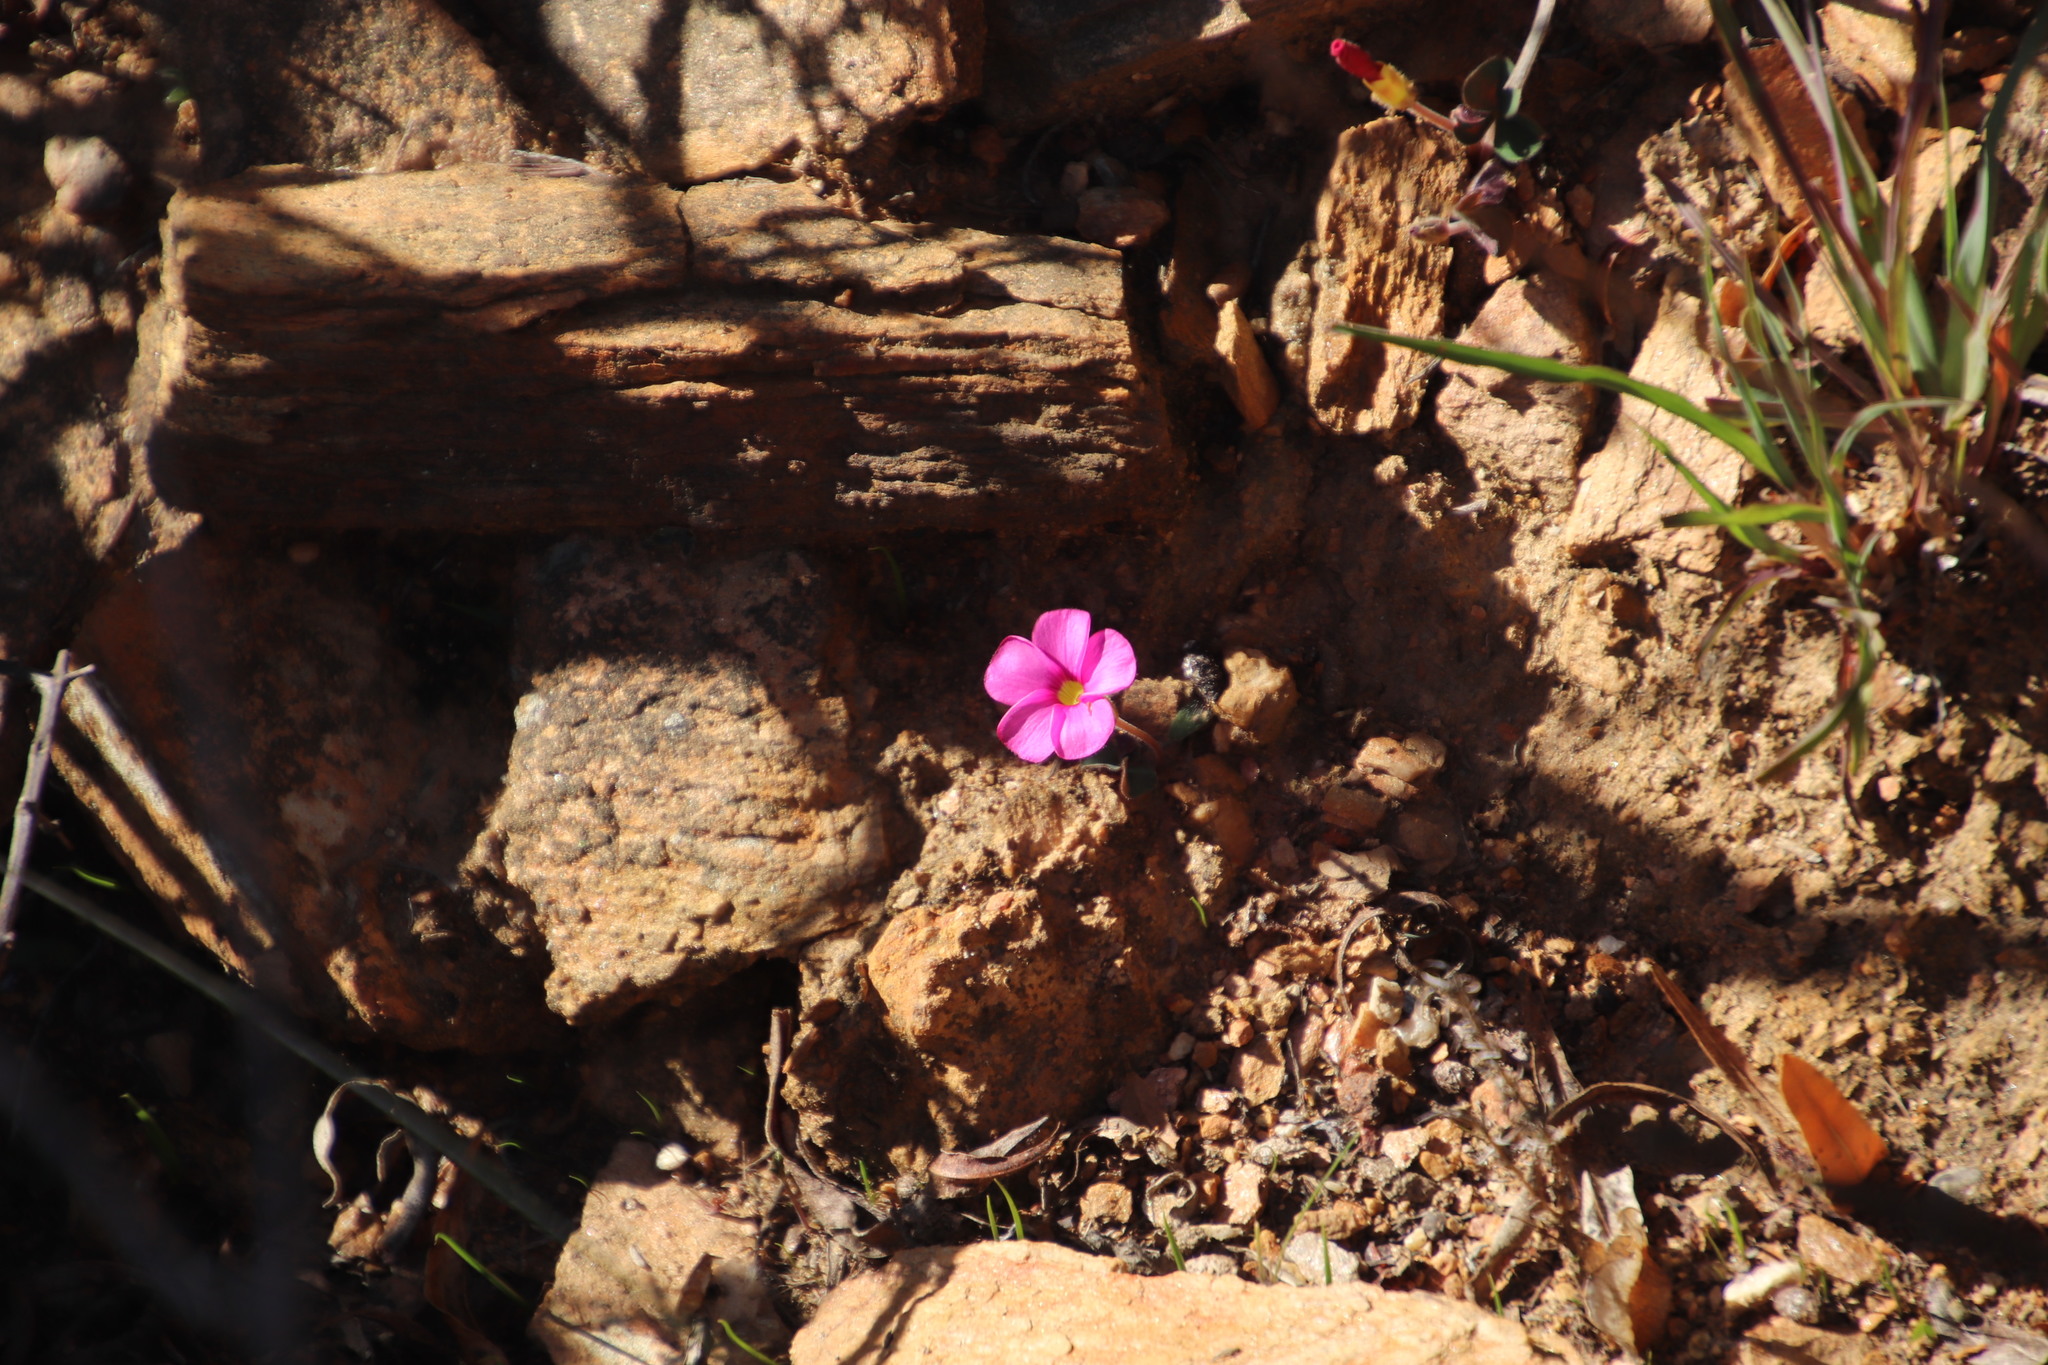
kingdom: Plantae
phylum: Tracheophyta
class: Magnoliopsida
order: Oxalidales
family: Oxalidaceae
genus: Oxalis
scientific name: Oxalis eckloniana
